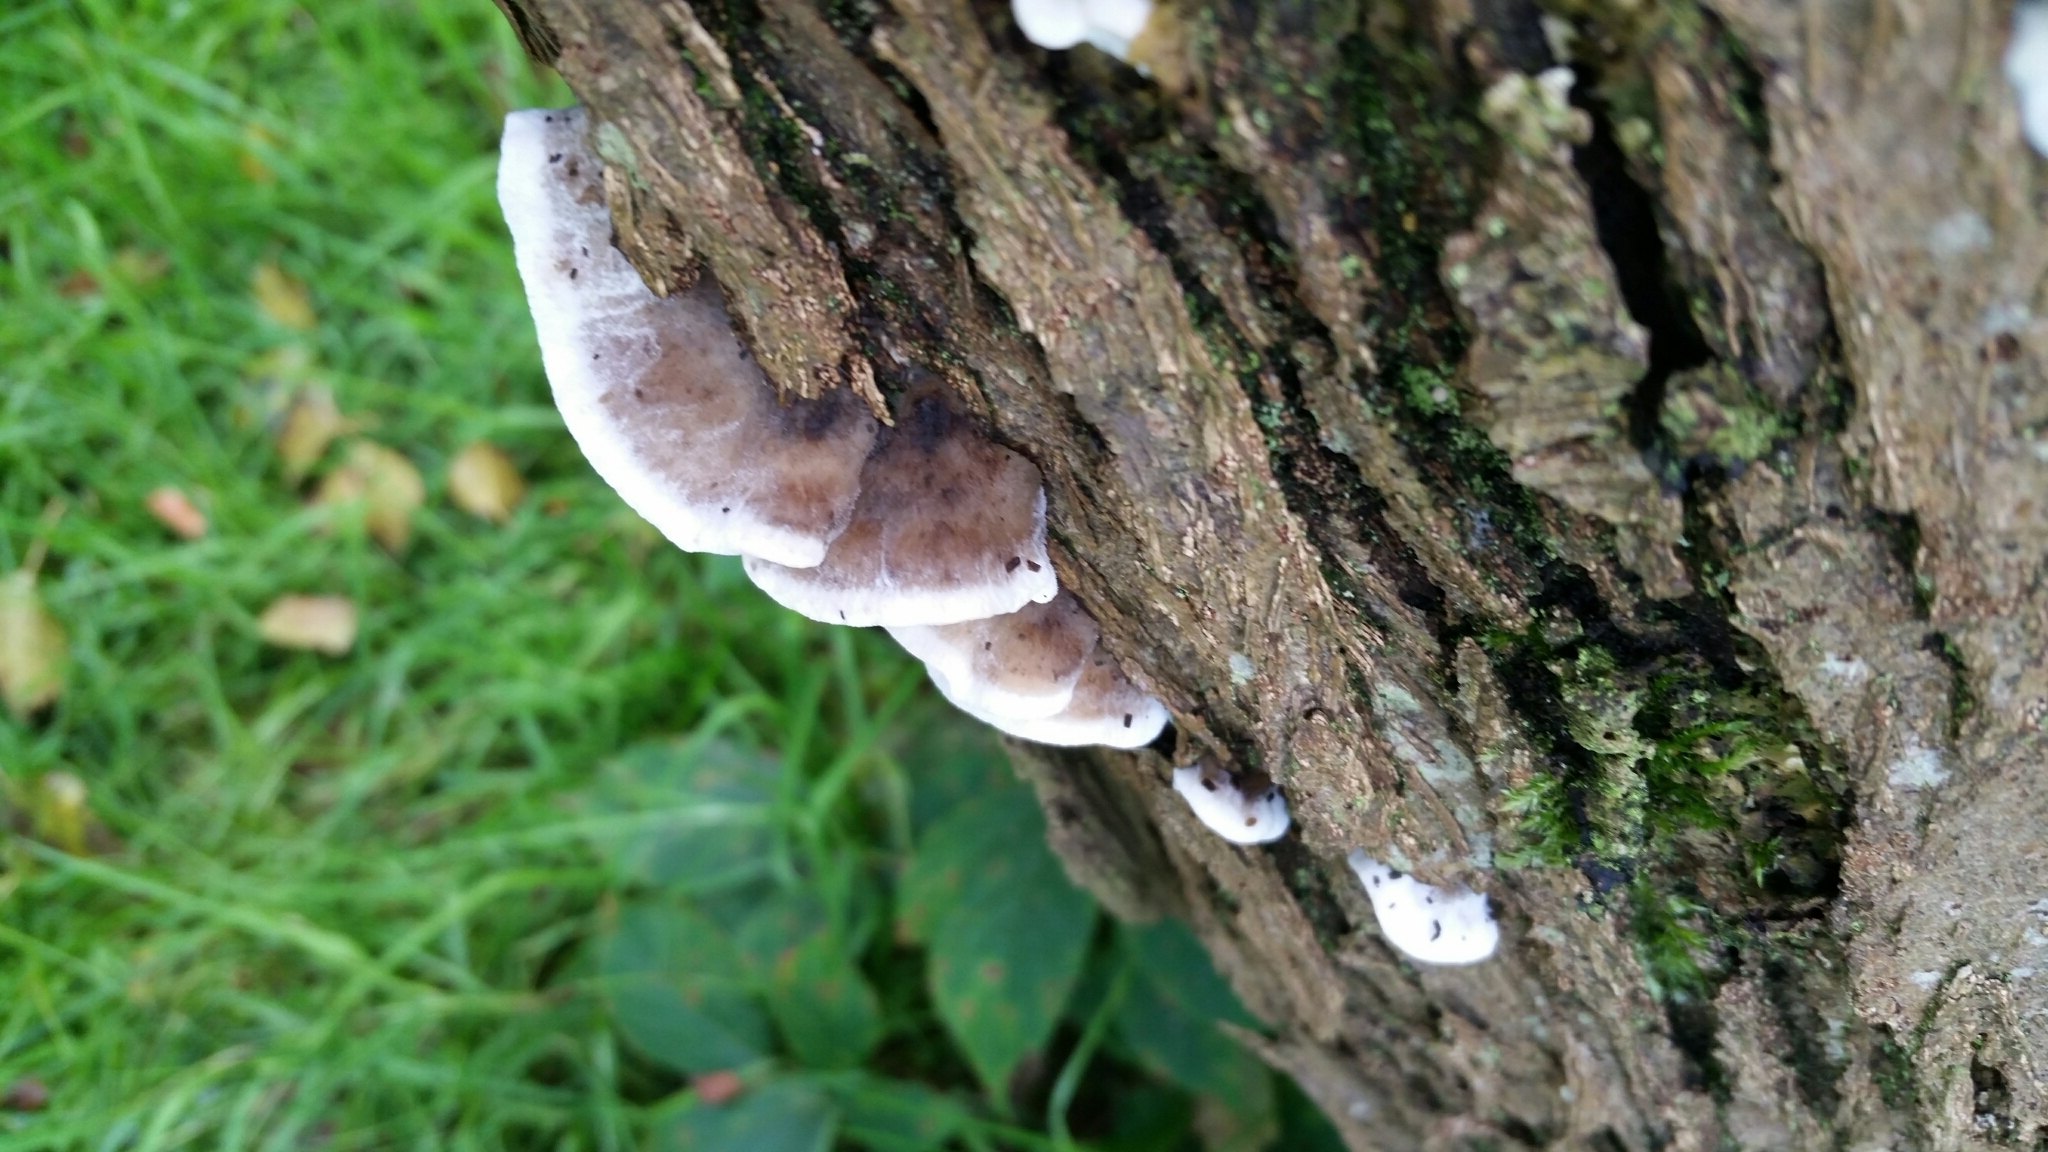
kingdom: Fungi
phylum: Basidiomycota
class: Agaricomycetes
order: Polyporales
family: Phanerochaetaceae
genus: Bjerkandera
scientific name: Bjerkandera adusta
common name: Smoky bracket
